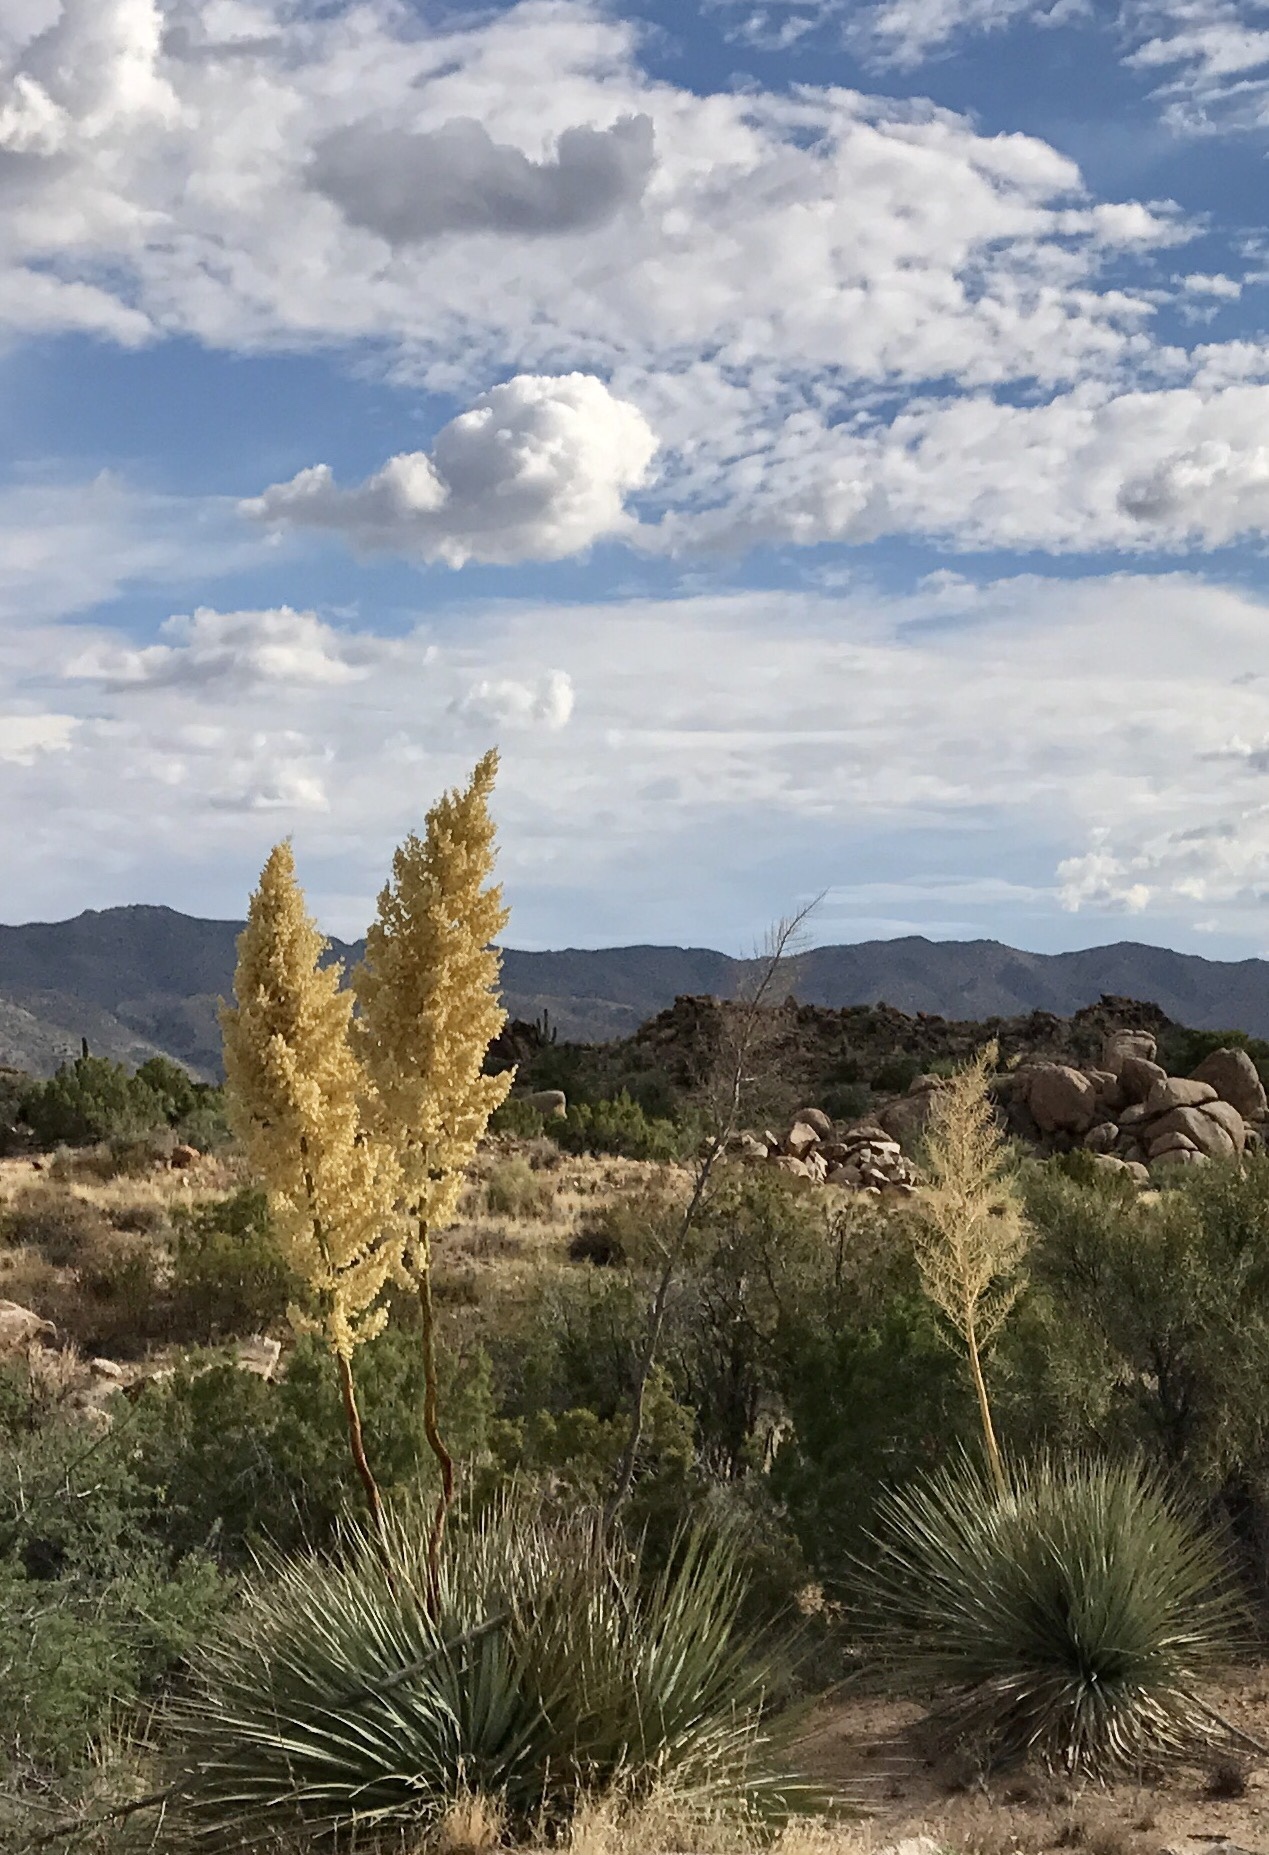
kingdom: Plantae
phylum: Tracheophyta
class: Liliopsida
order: Asparagales
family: Asparagaceae
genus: Nolina
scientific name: Nolina bigelovii
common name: Bigelow bear-grass
